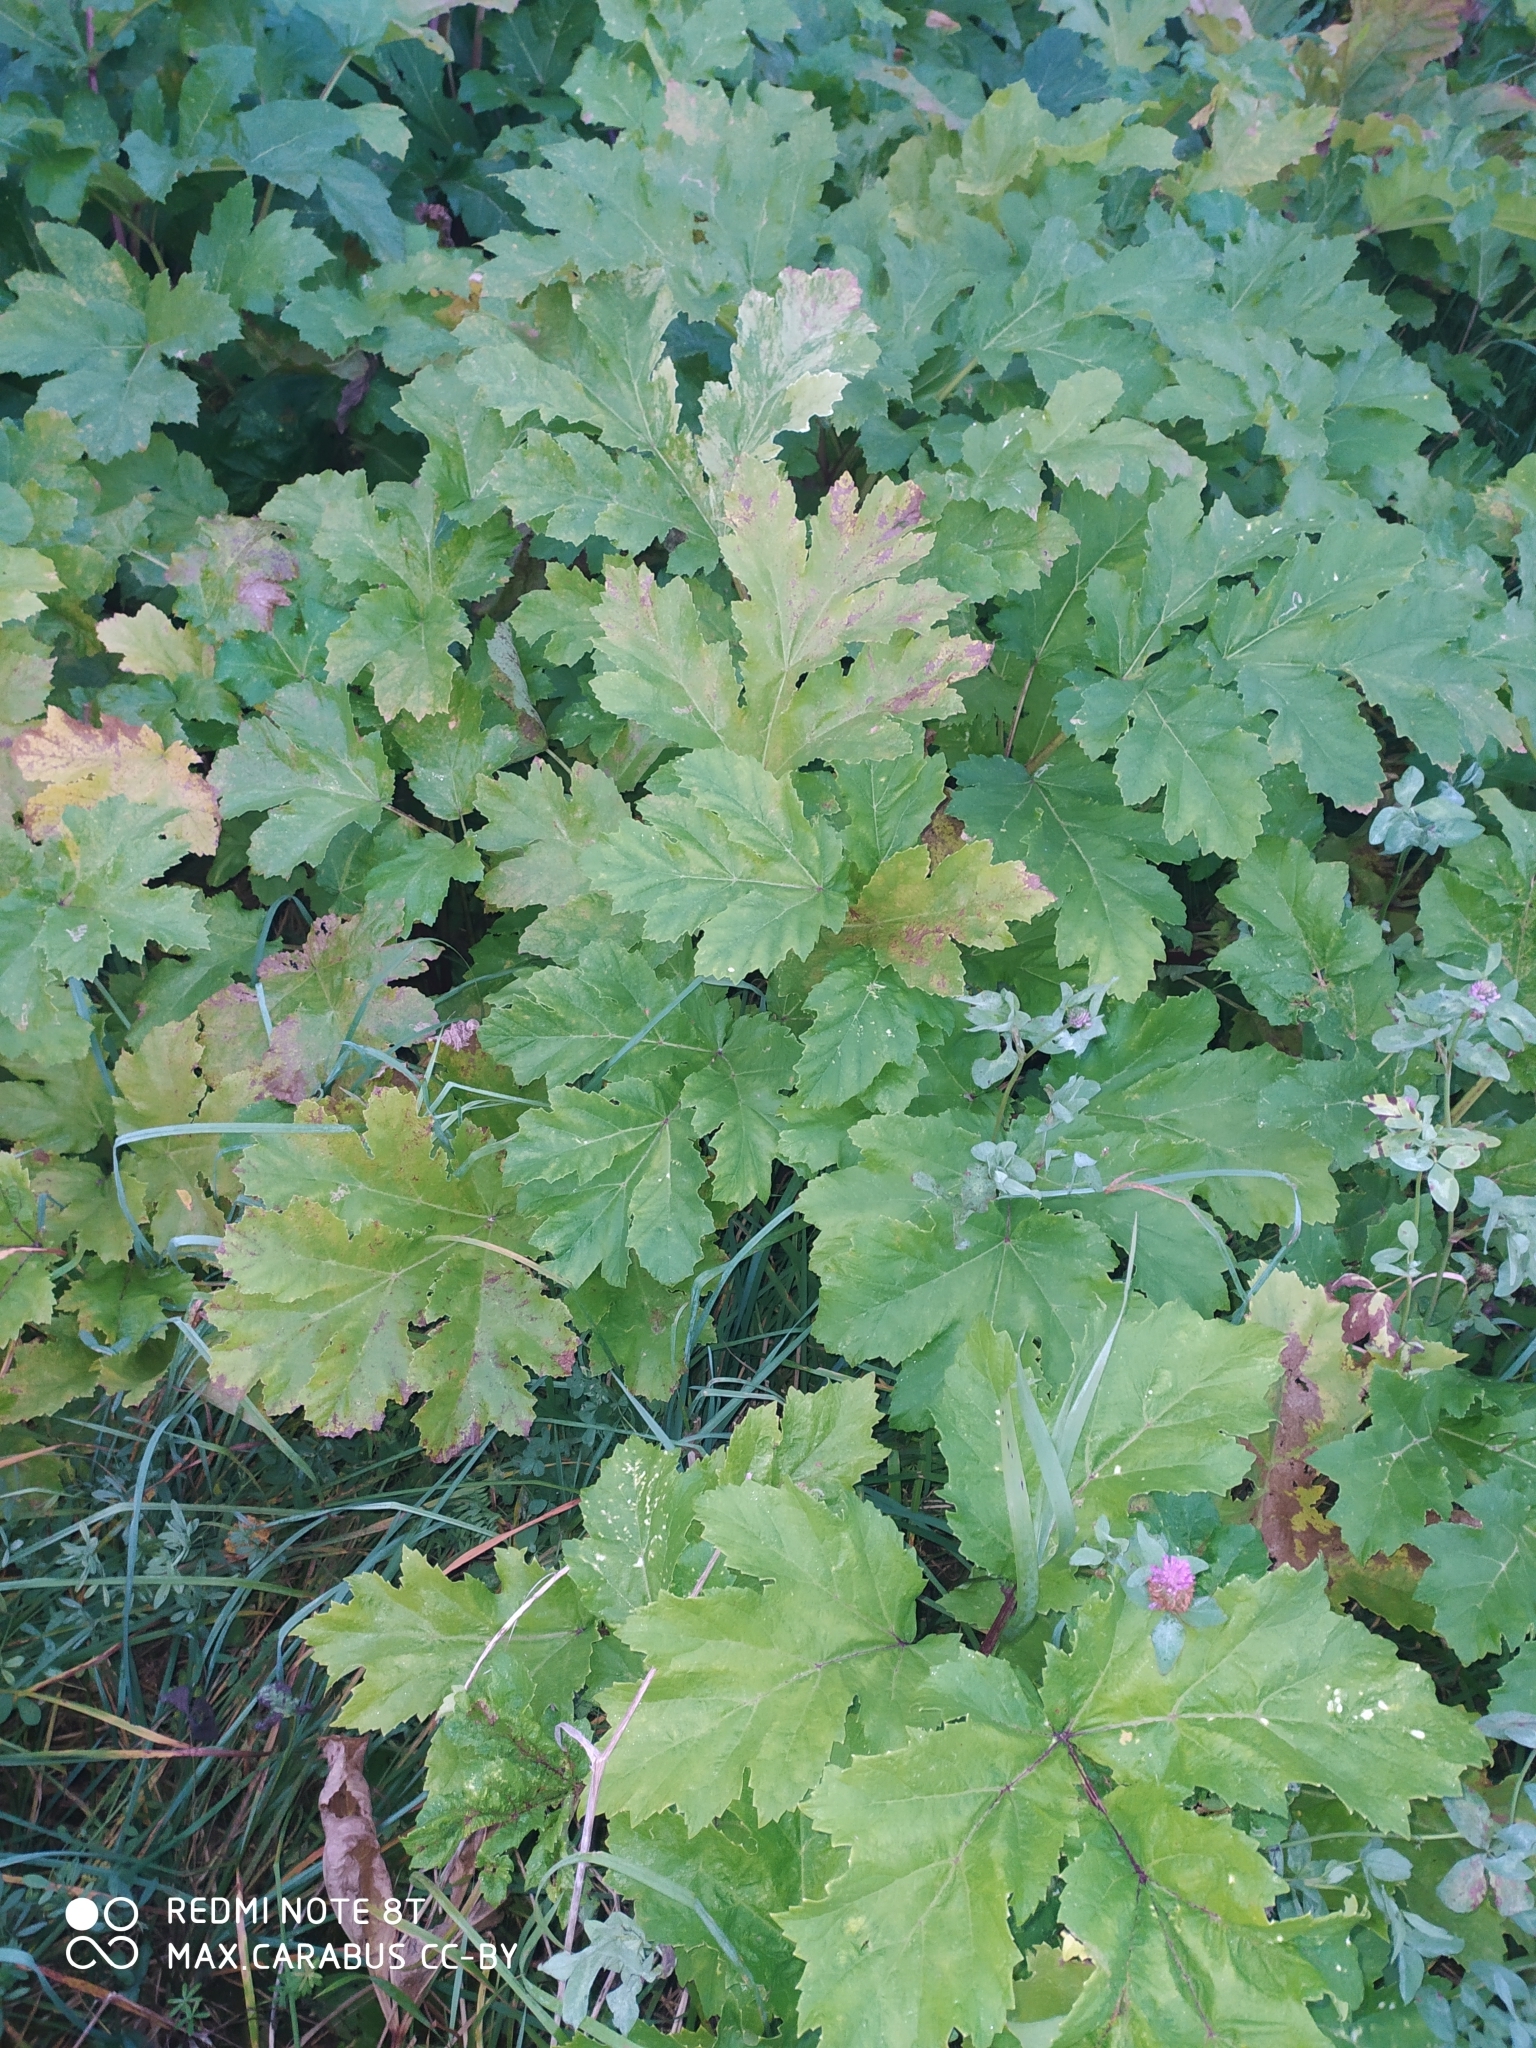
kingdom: Plantae
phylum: Tracheophyta
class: Magnoliopsida
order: Apiales
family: Apiaceae
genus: Heracleum
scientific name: Heracleum sosnowskyi
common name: Sosnowsky's hogweed
